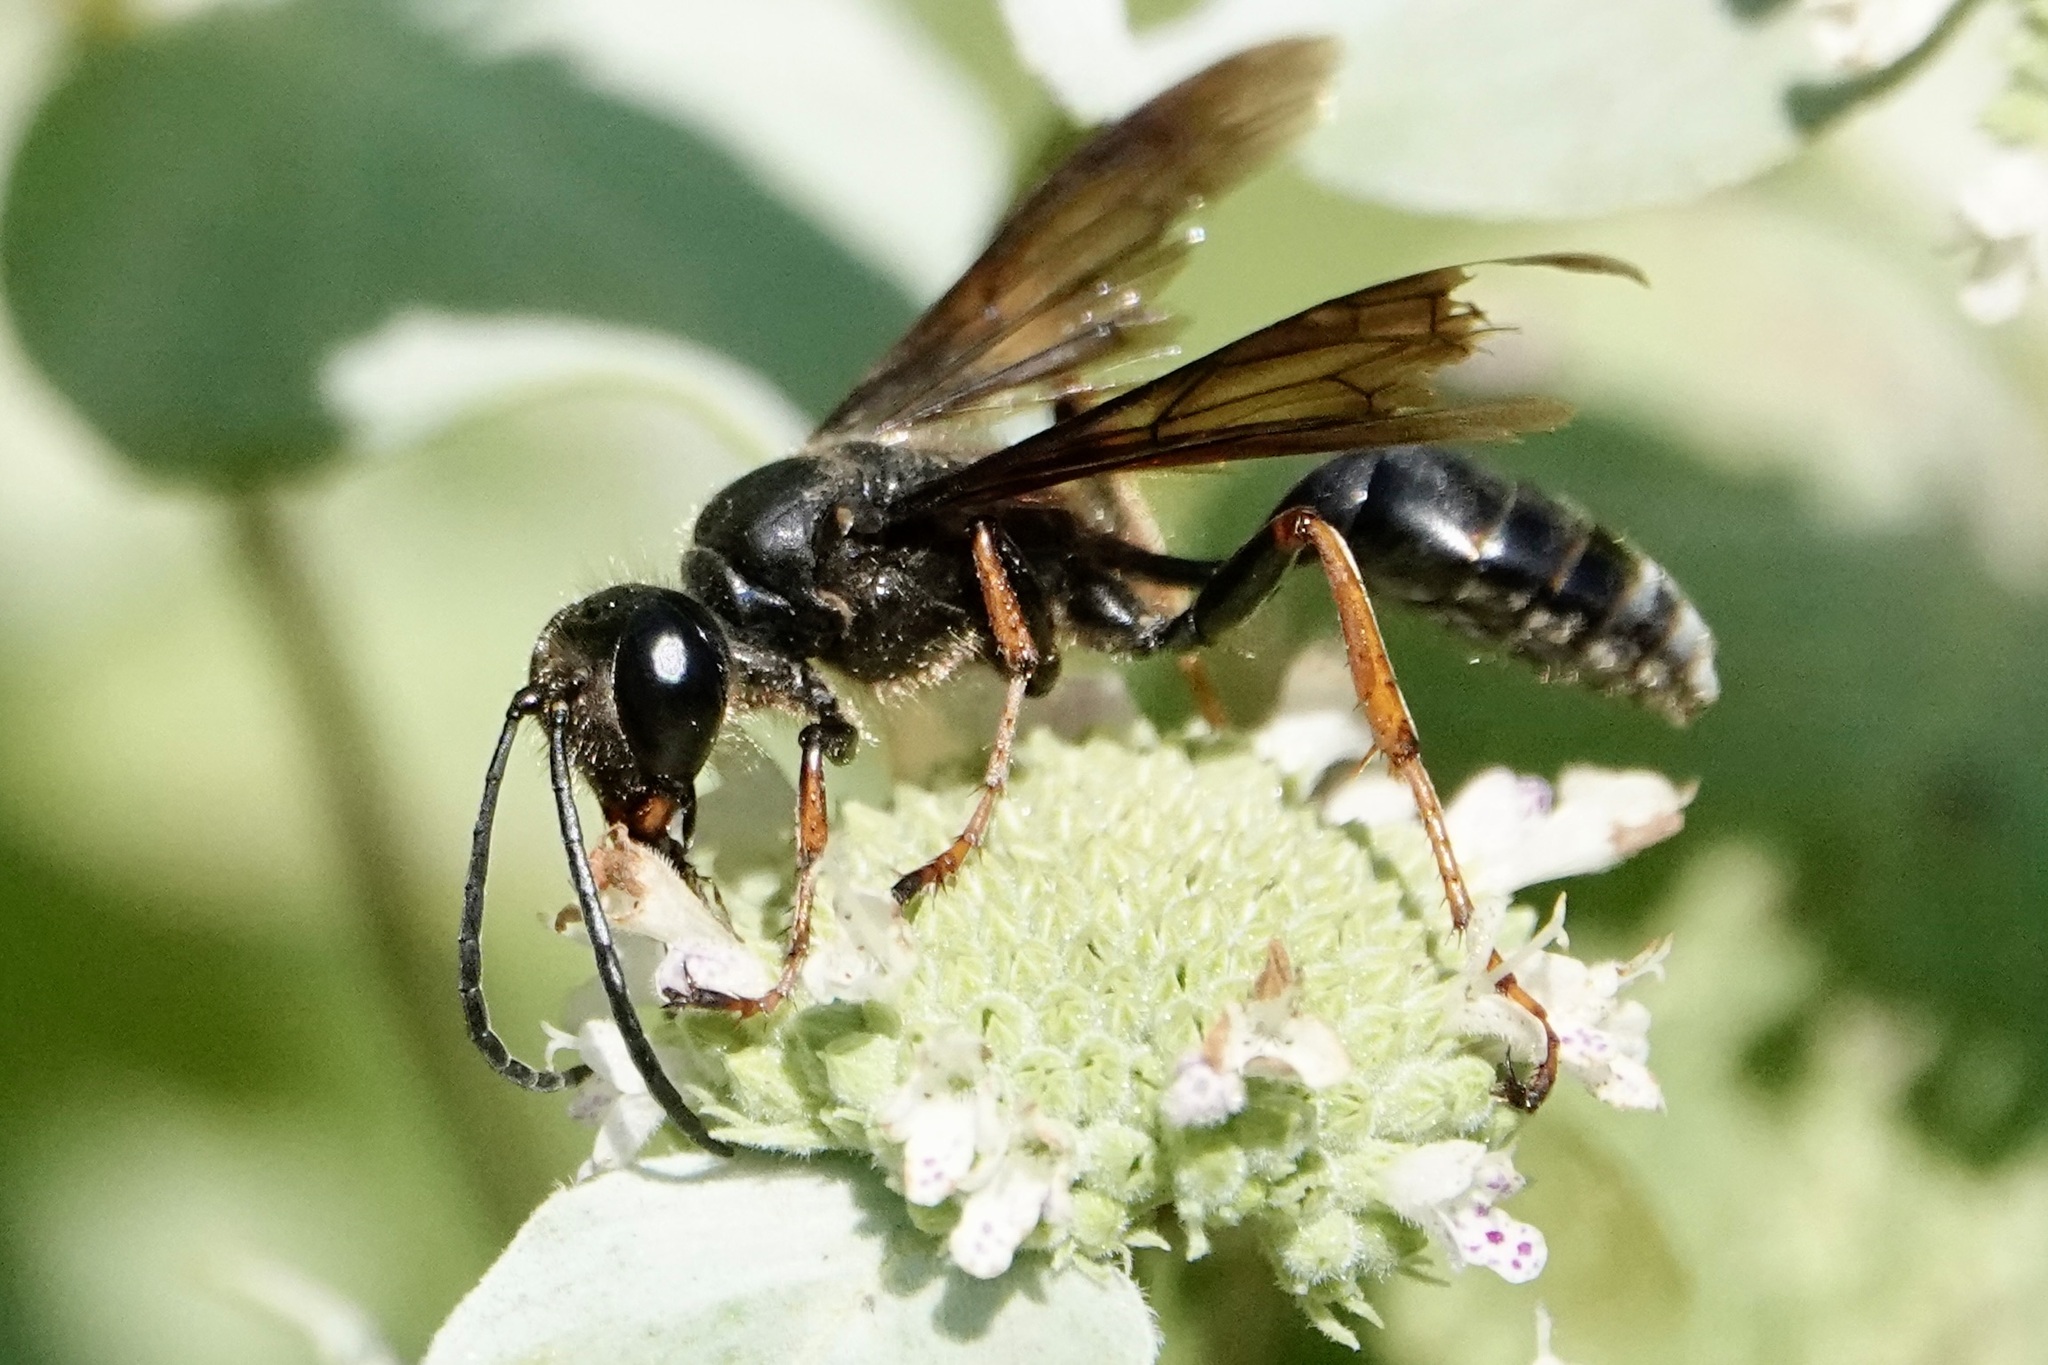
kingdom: Animalia
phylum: Arthropoda
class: Insecta
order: Hymenoptera
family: Sphecidae
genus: Isodontia
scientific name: Isodontia auripes
